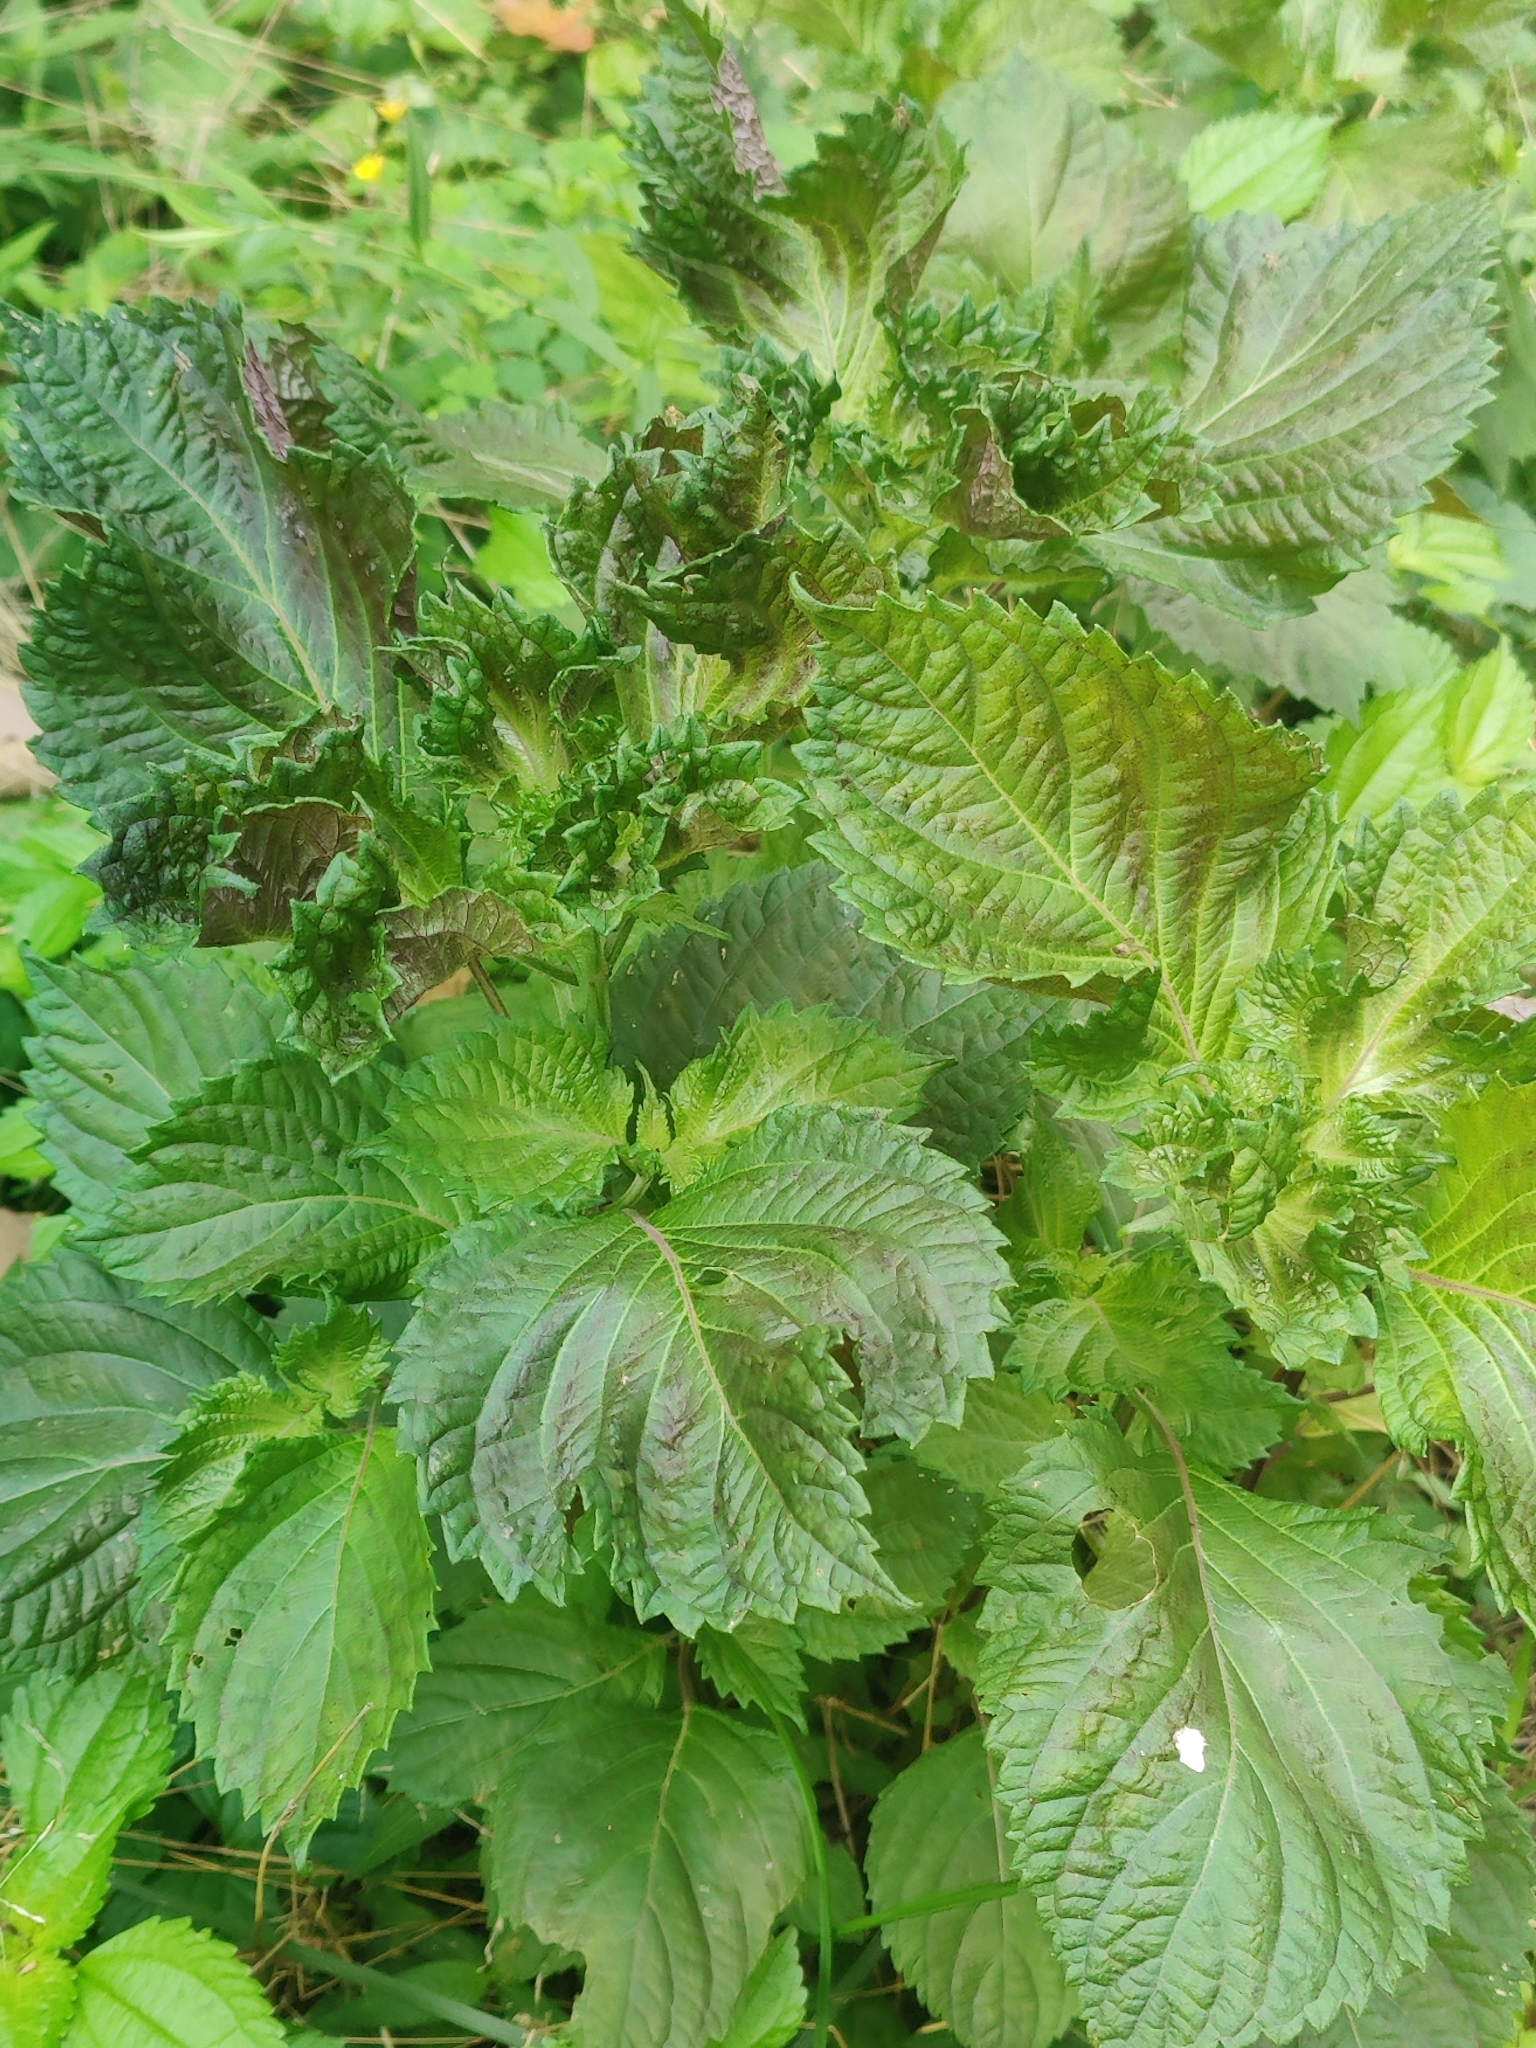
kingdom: Plantae
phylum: Tracheophyta
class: Magnoliopsida
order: Lamiales
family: Lamiaceae
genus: Perilla
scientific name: Perilla frutescens
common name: Perilla
